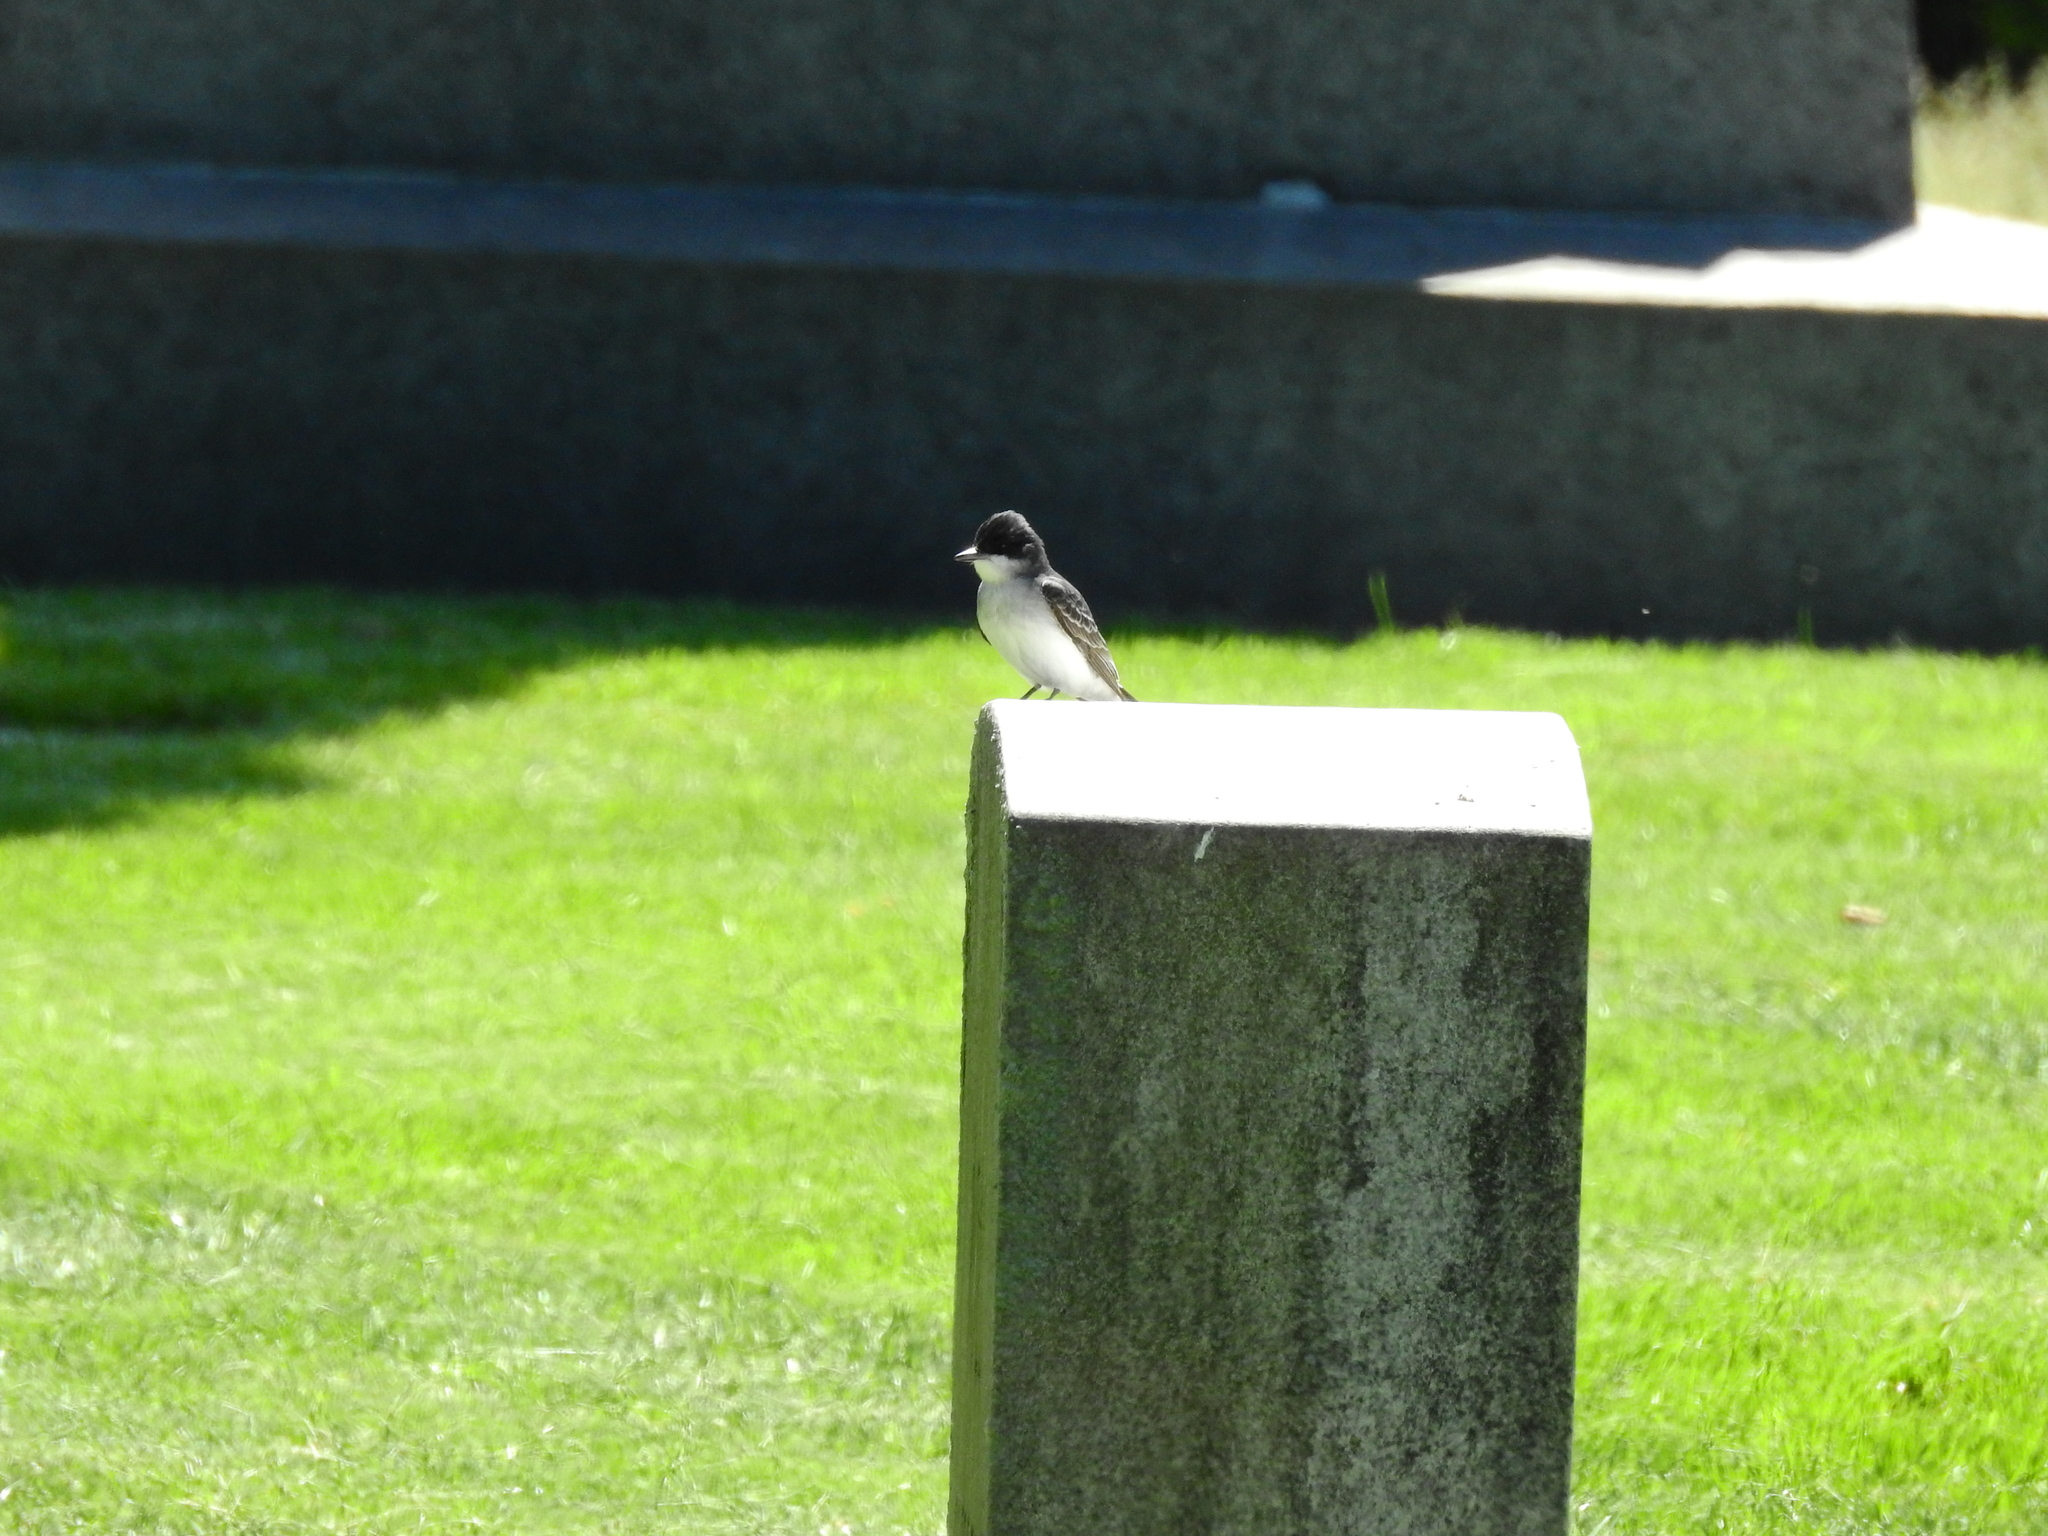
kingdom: Animalia
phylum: Chordata
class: Aves
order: Passeriformes
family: Tyrannidae
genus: Tyrannus
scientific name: Tyrannus tyrannus
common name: Eastern kingbird
